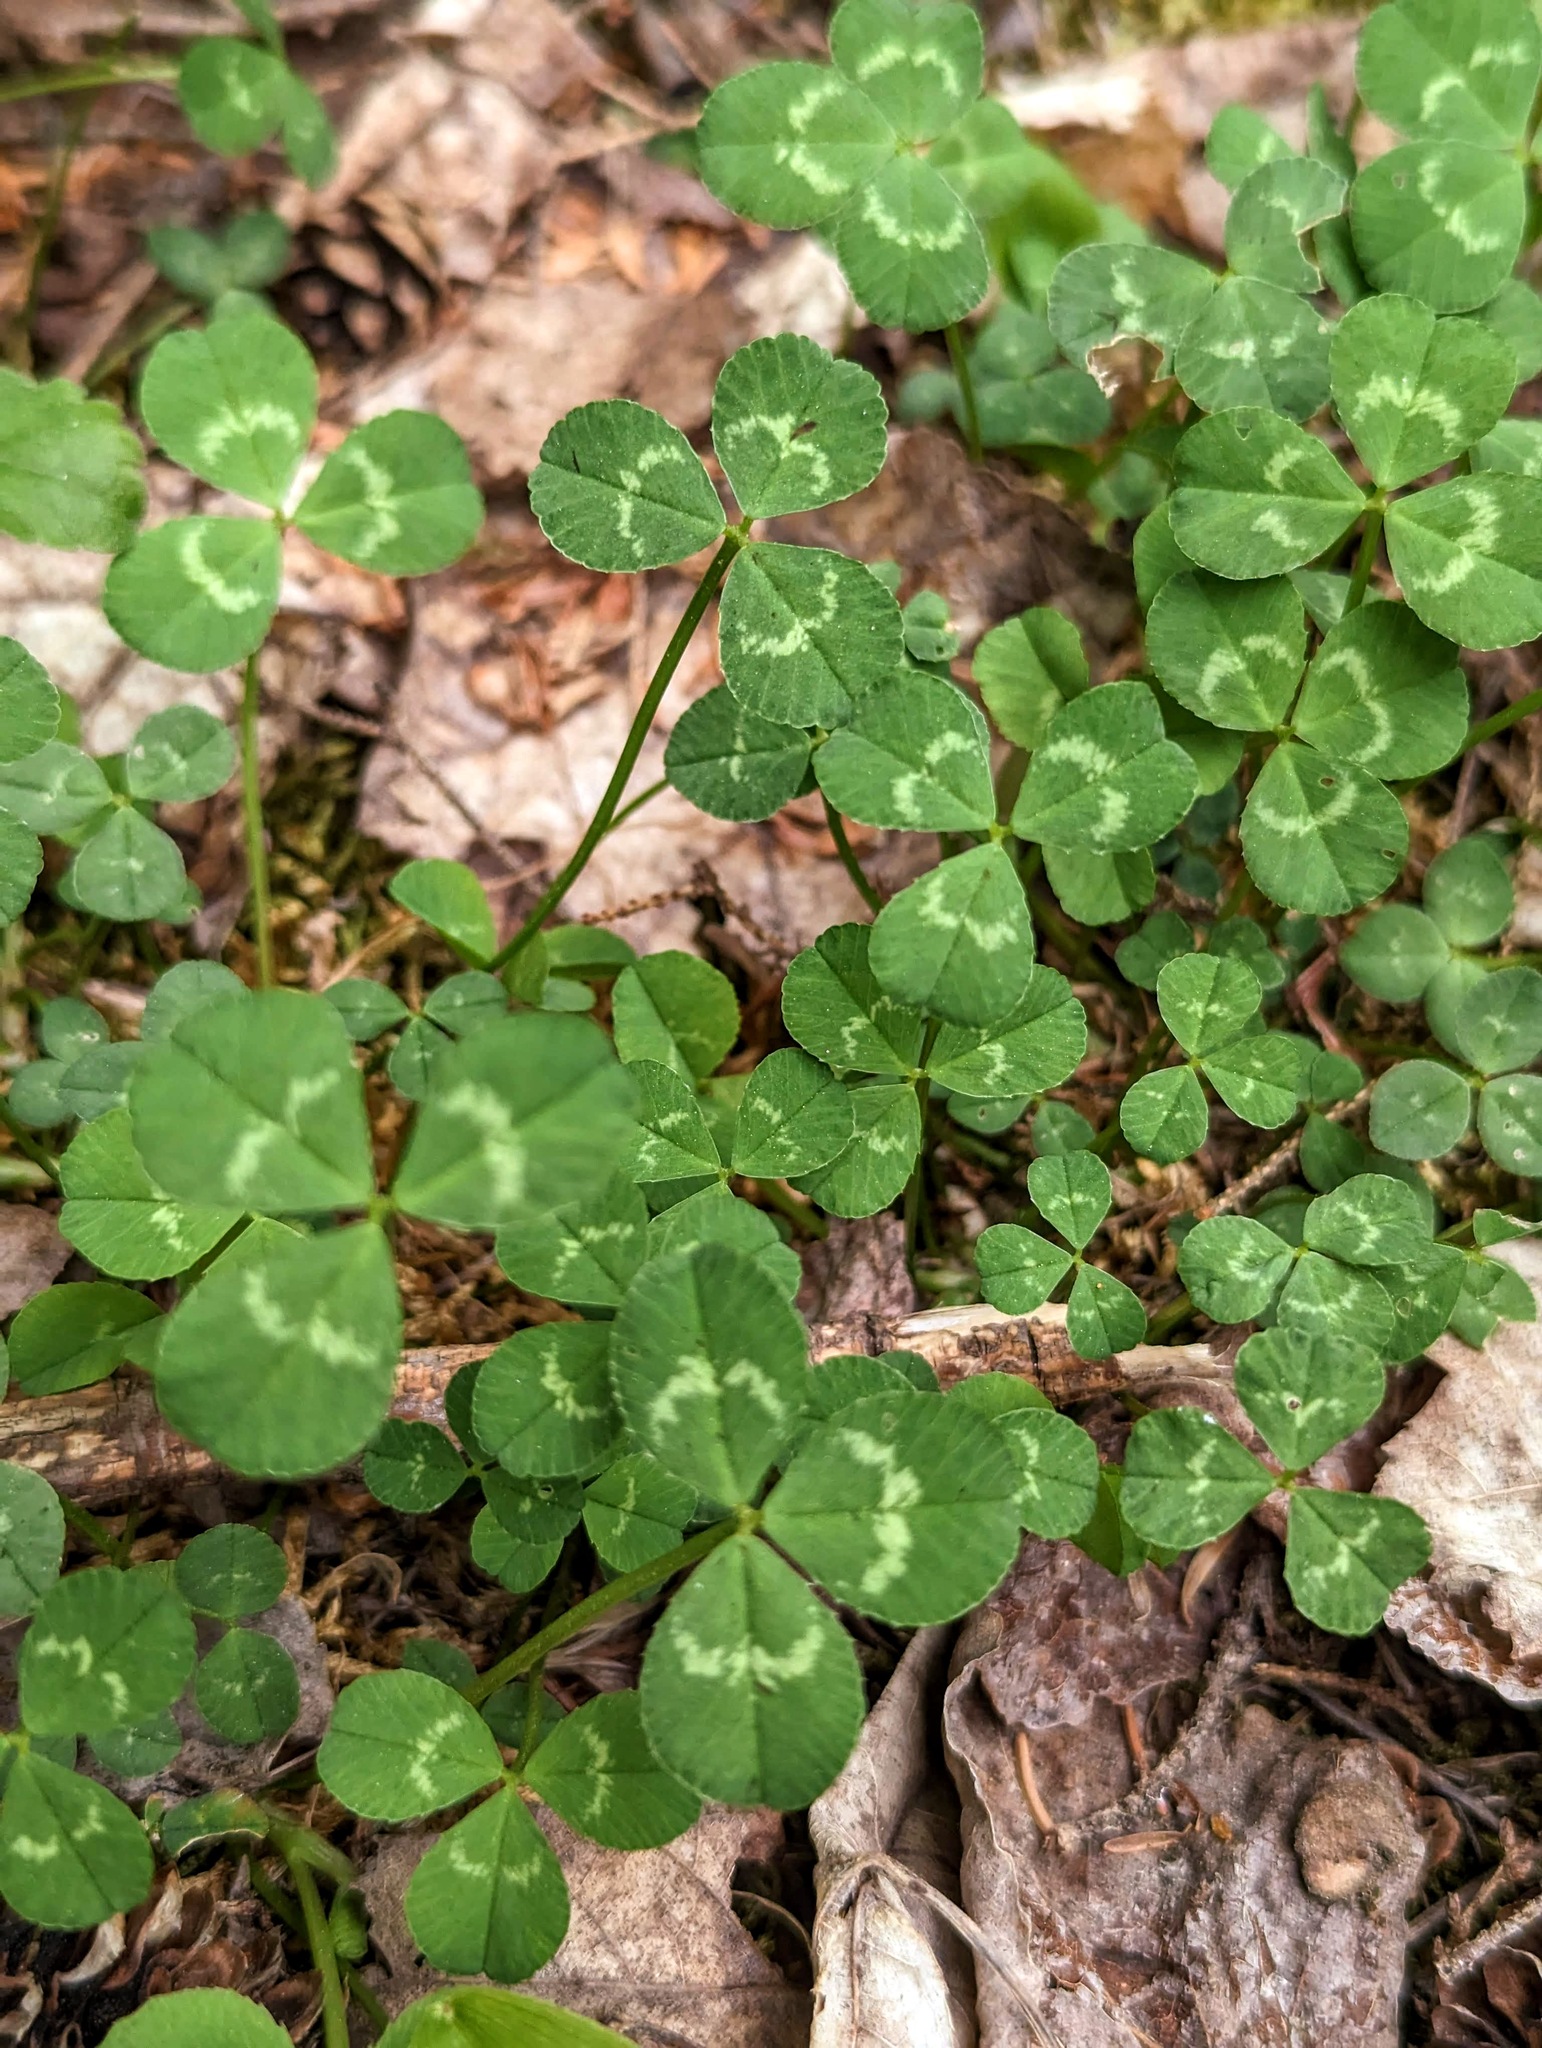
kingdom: Plantae
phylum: Tracheophyta
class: Magnoliopsida
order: Fabales
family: Fabaceae
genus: Trifolium
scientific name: Trifolium repens
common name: White clover
